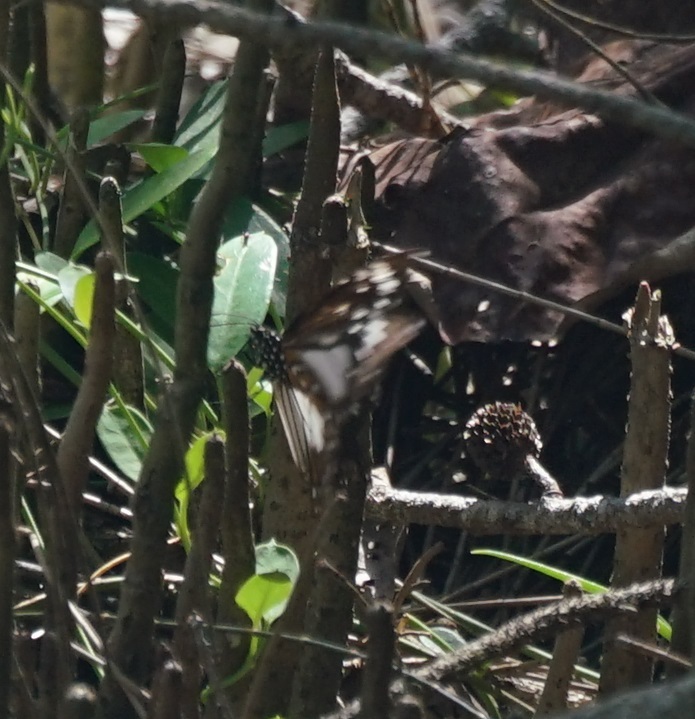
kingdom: Animalia
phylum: Arthropoda
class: Insecta
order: Lepidoptera
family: Nymphalidae
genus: Danaus
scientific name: Danaus affinis
